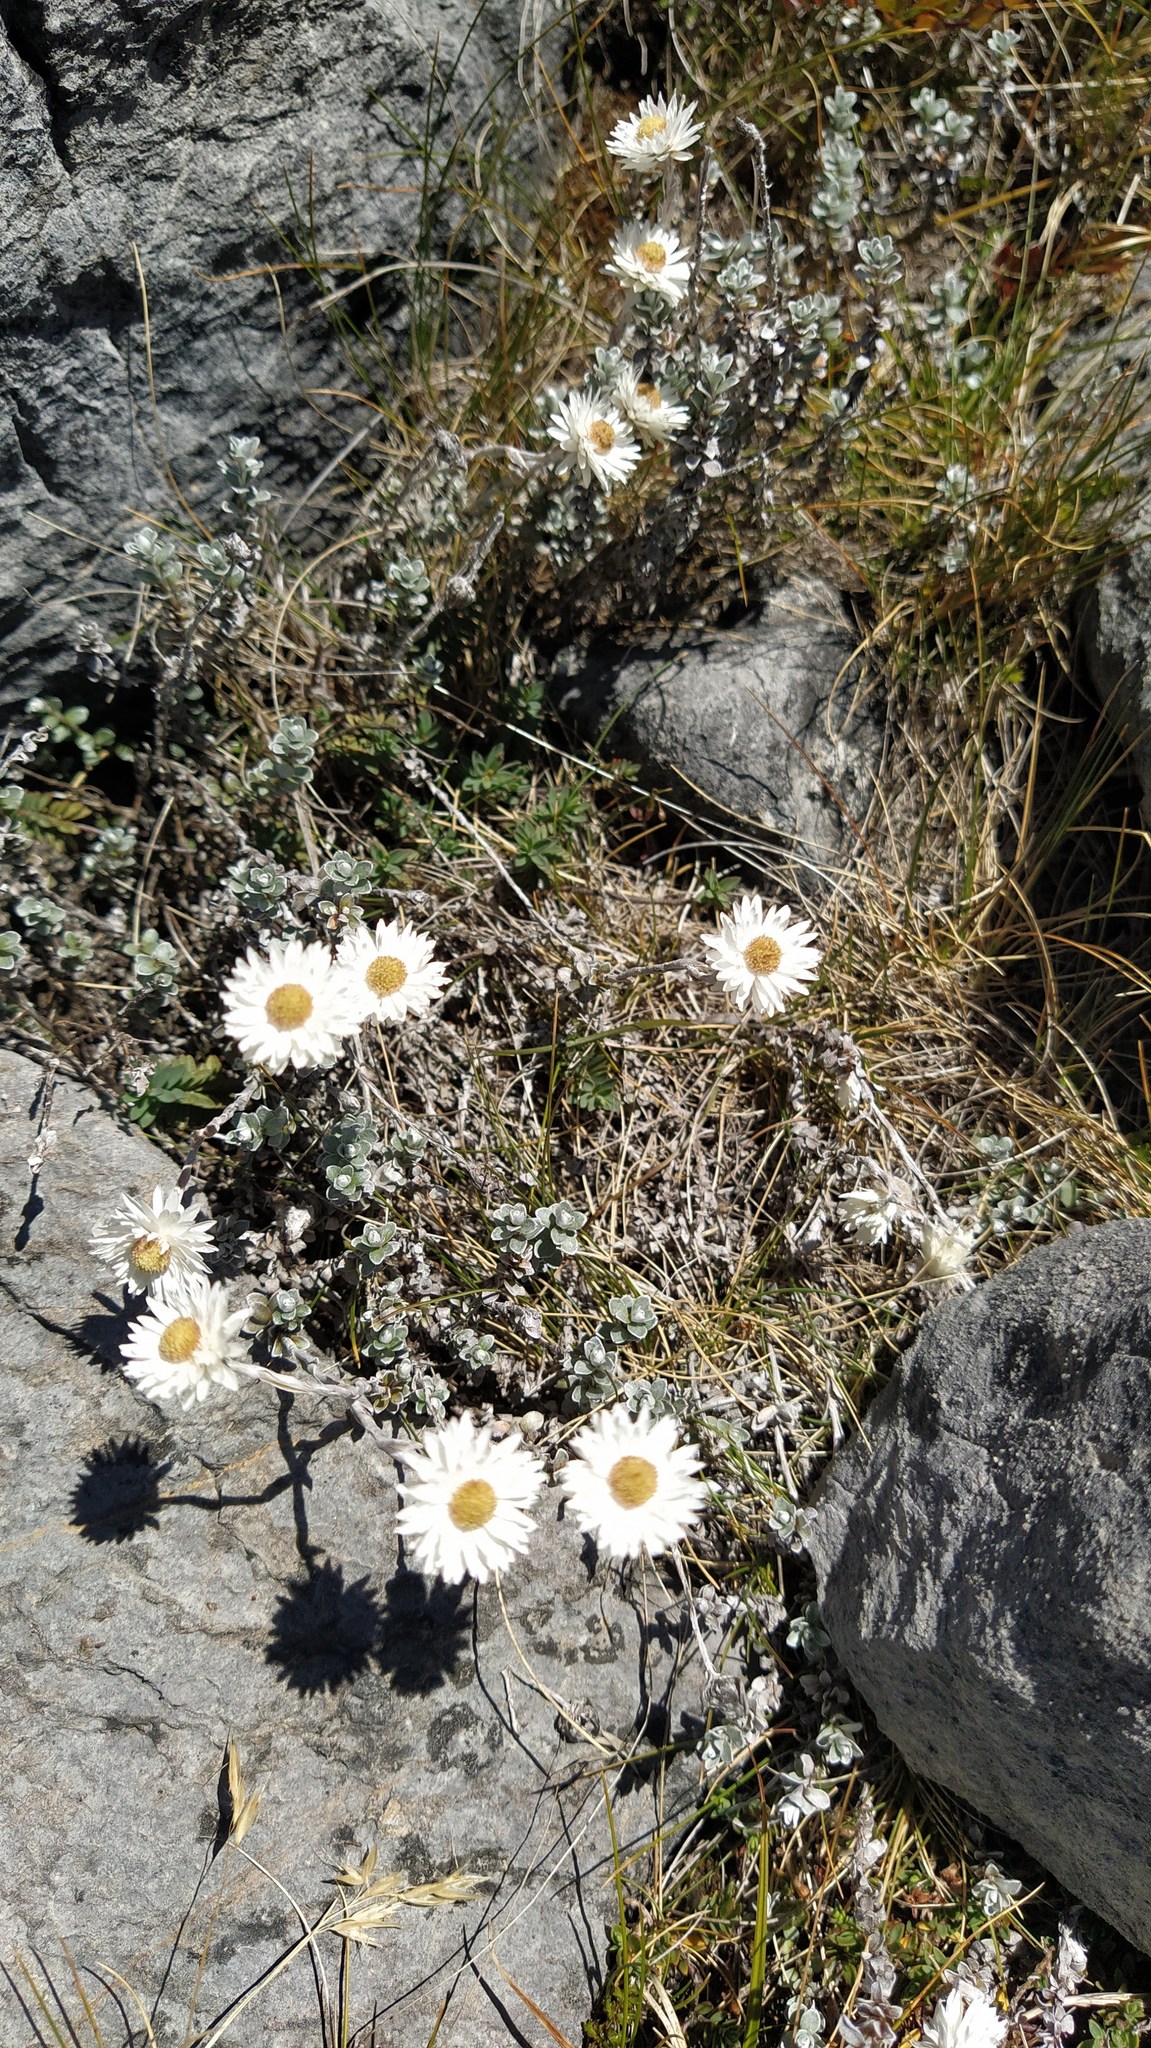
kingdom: Plantae
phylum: Tracheophyta
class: Magnoliopsida
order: Asterales
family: Asteraceae
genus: Anaphalioides
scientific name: Anaphalioides bellidioides
